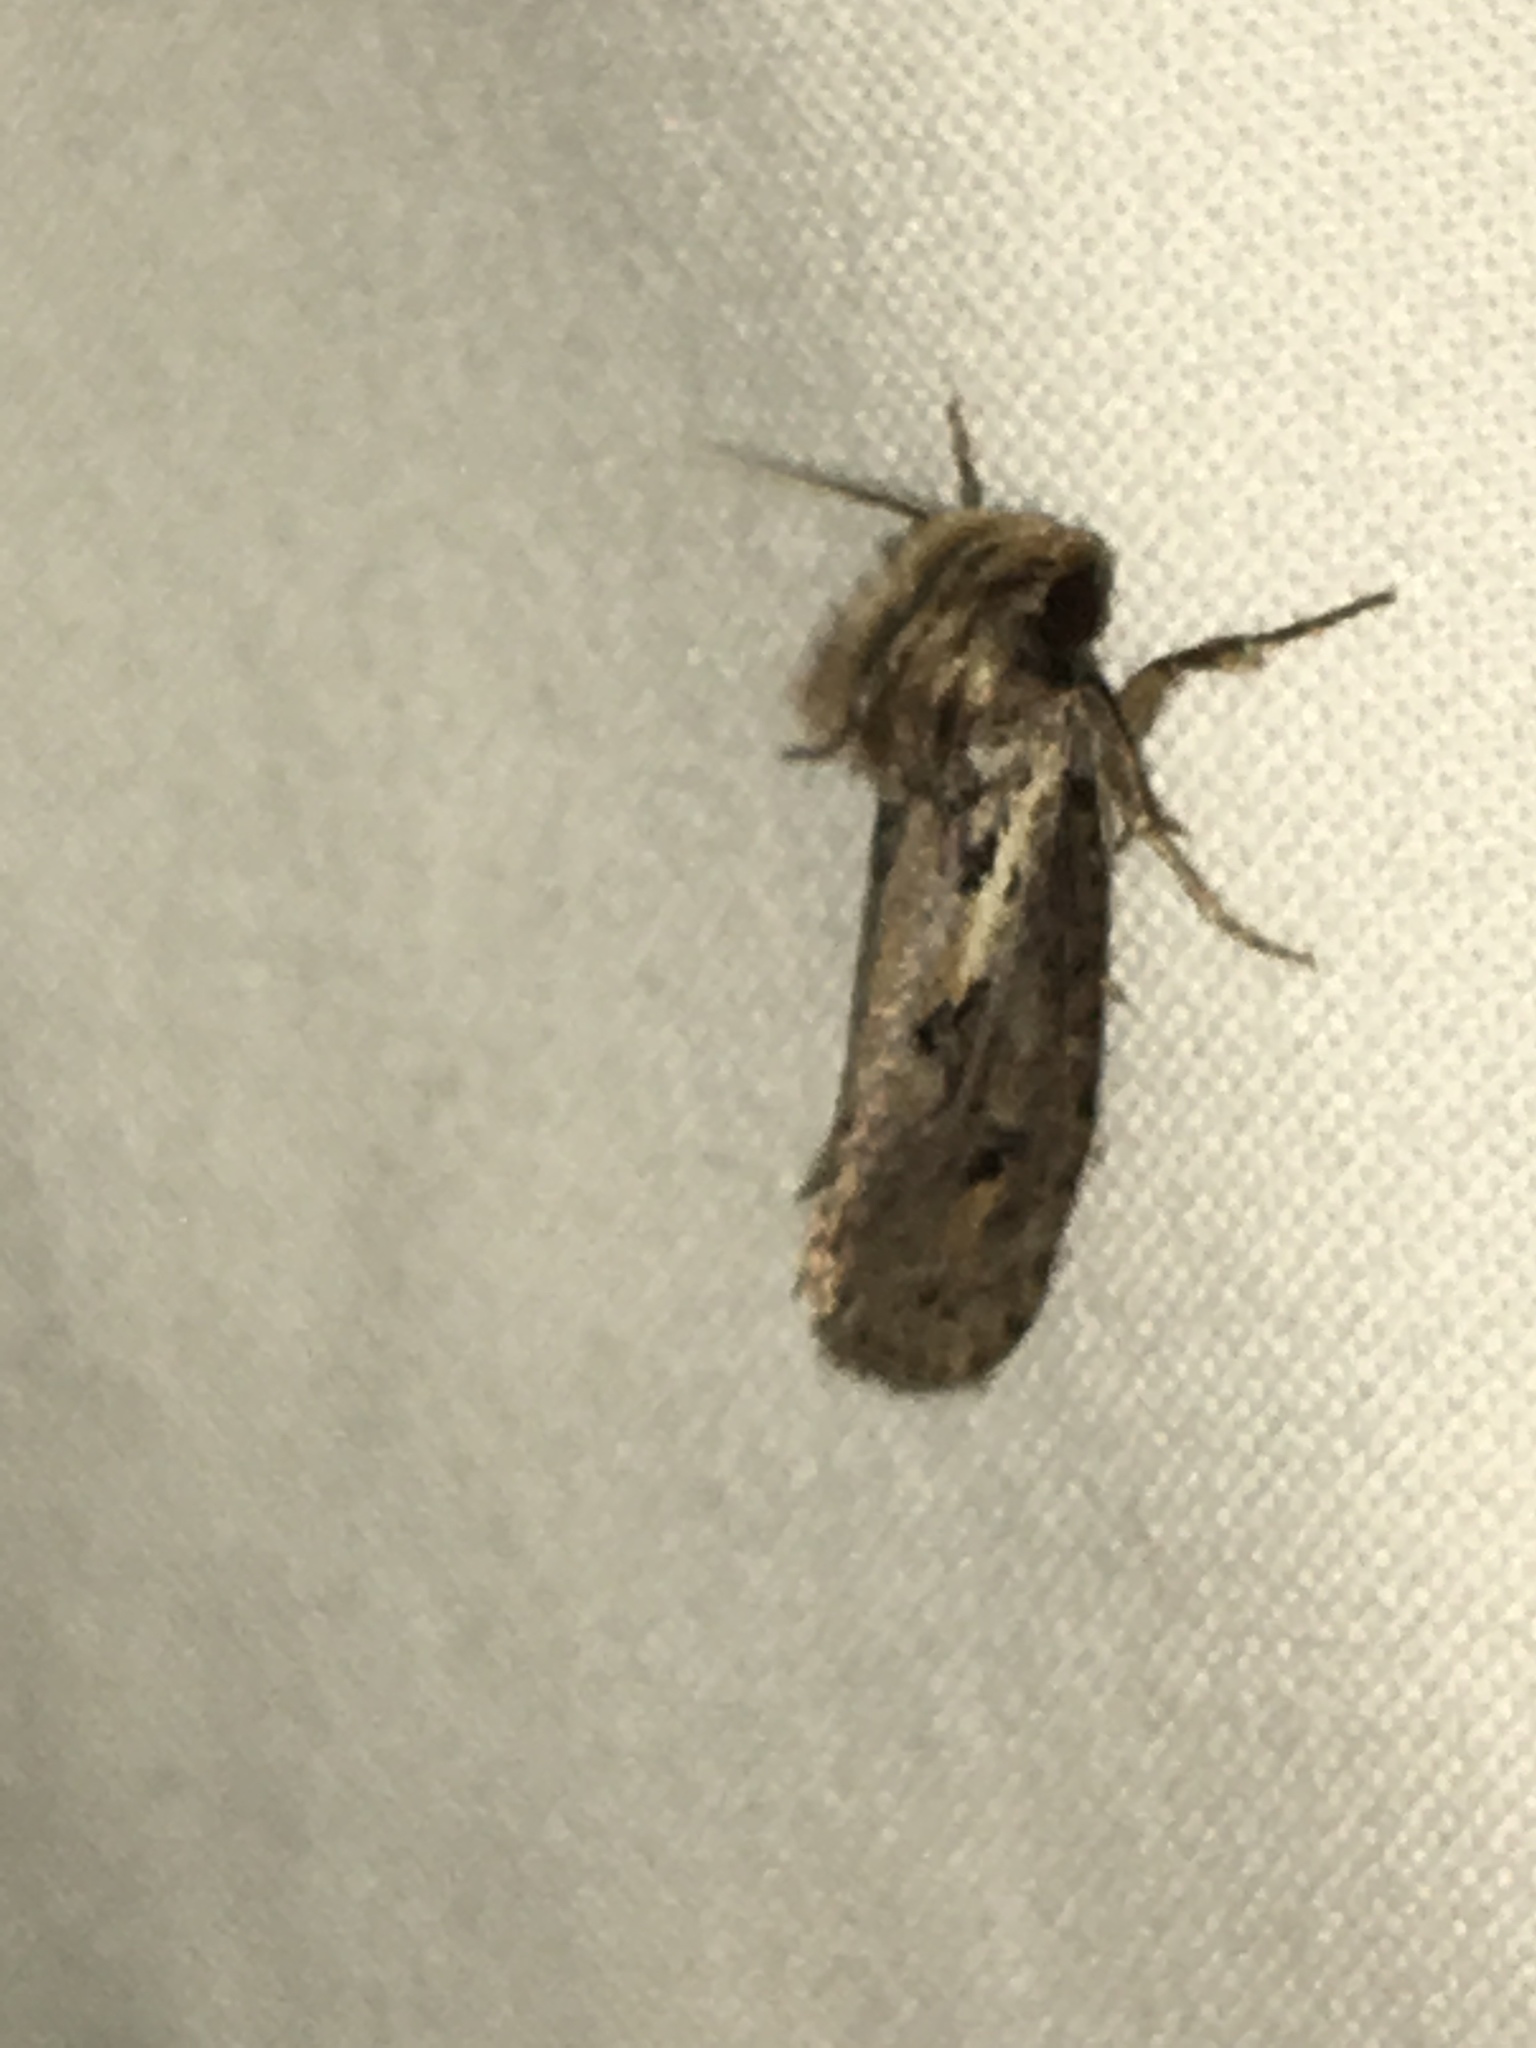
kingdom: Animalia
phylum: Arthropoda
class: Insecta
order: Lepidoptera
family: Tineidae
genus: Acrolophus
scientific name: Acrolophus popeanella
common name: Clemens' grass tubeworm moth
